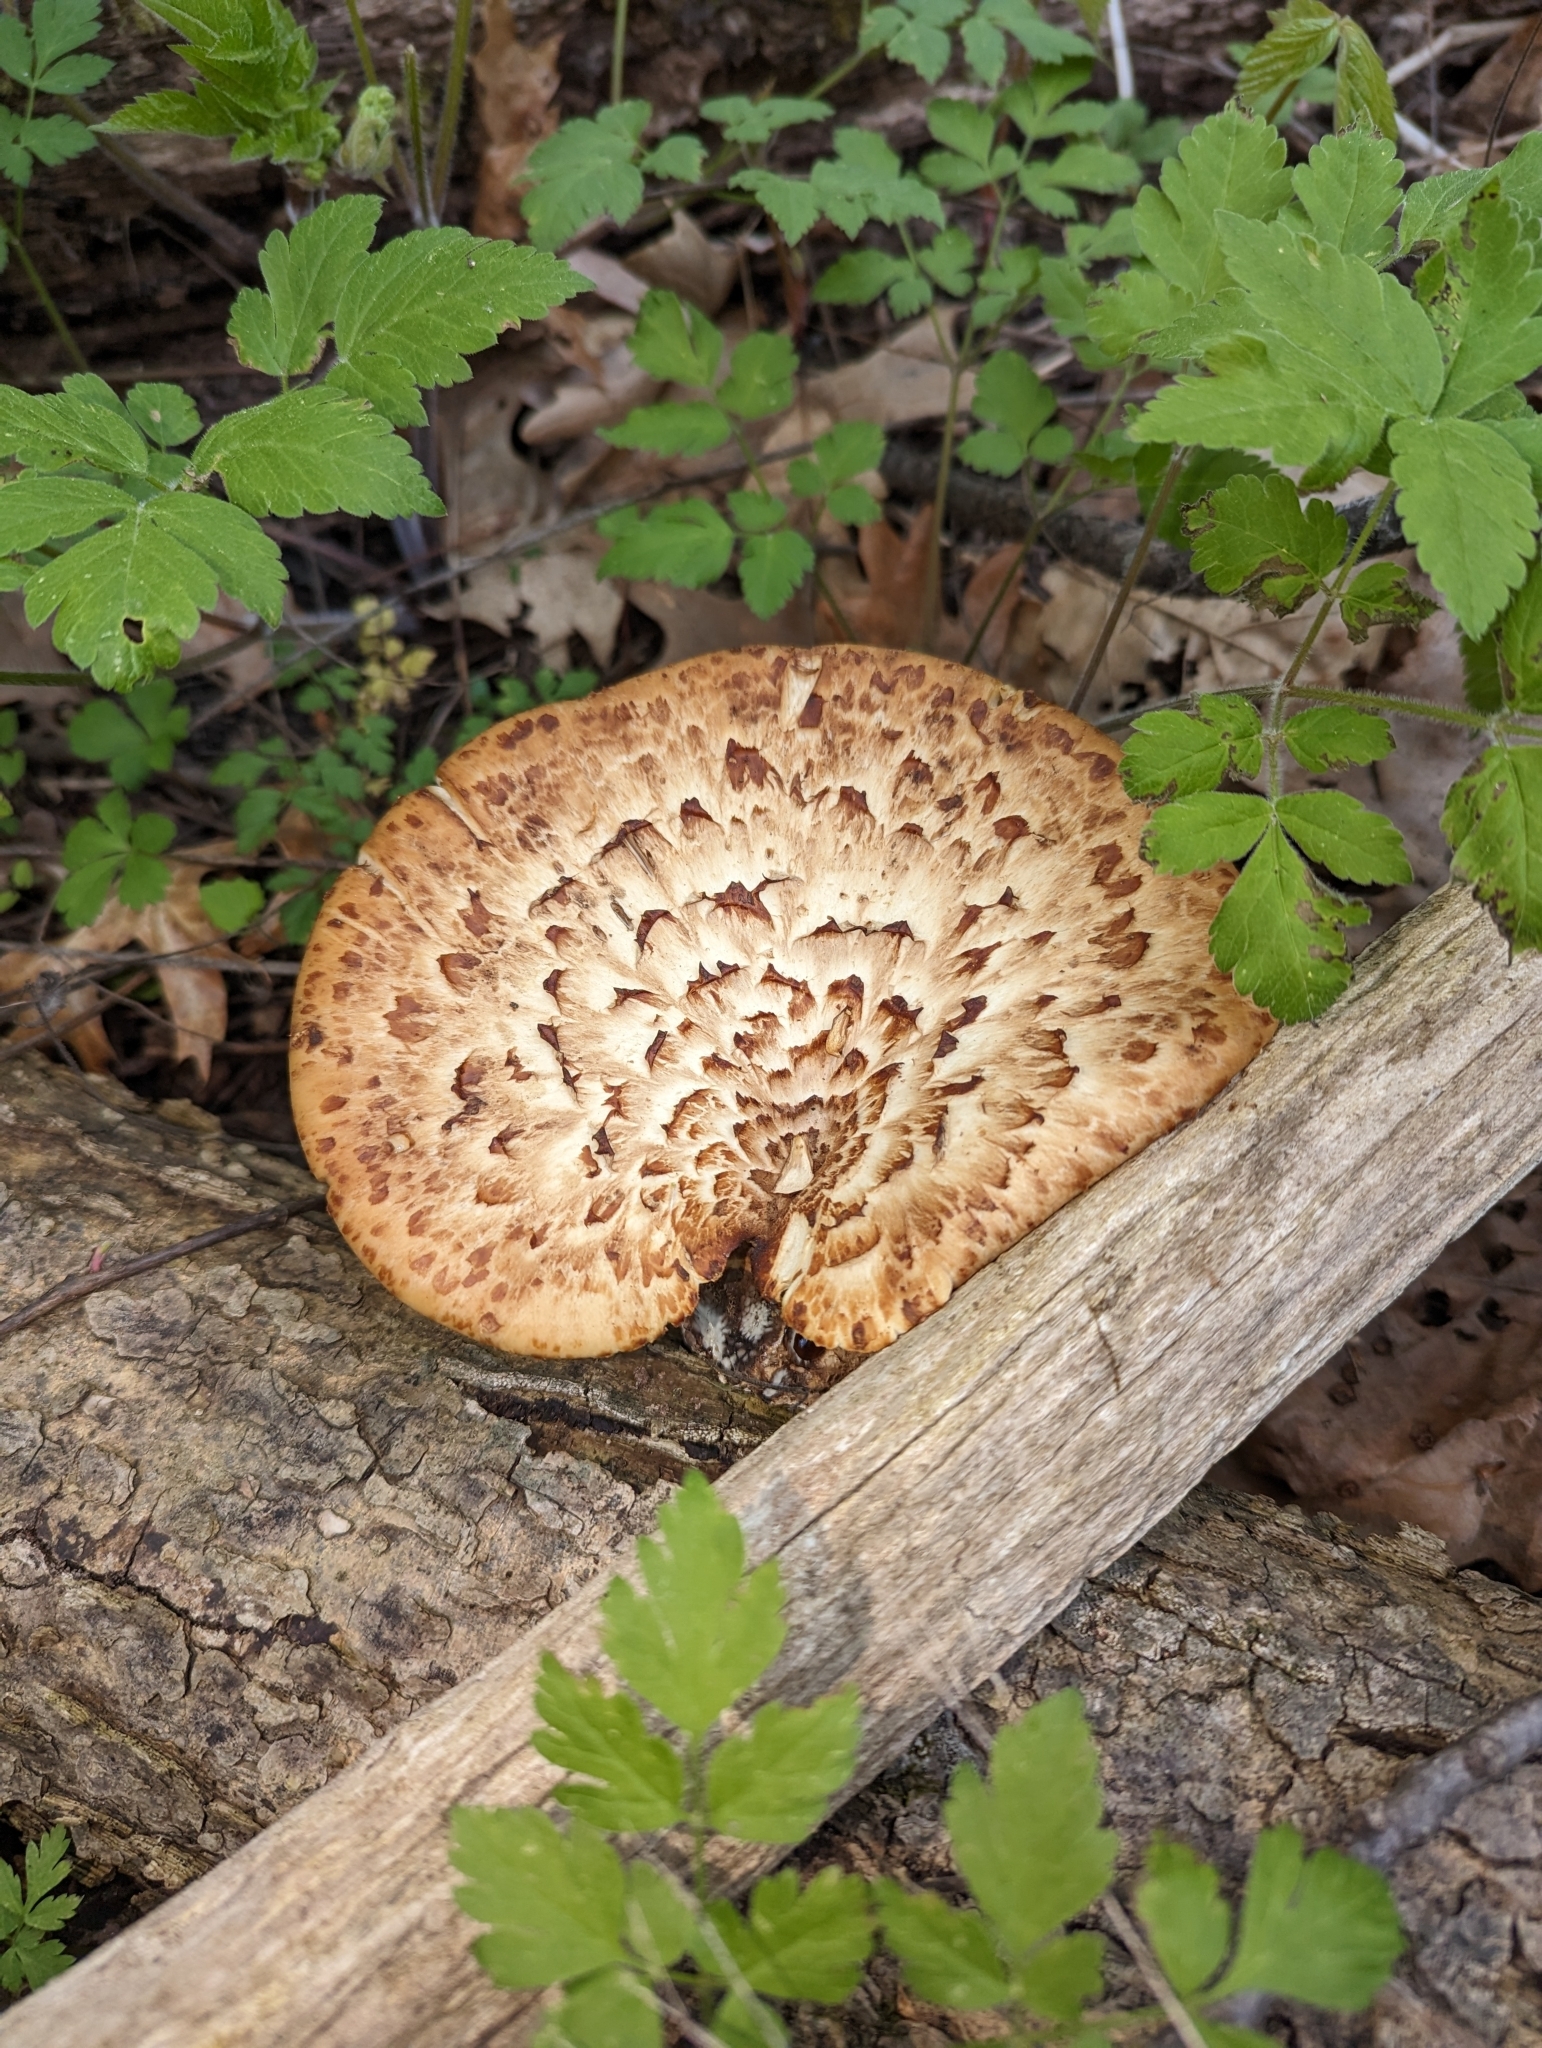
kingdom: Fungi
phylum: Basidiomycota
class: Agaricomycetes
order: Polyporales
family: Polyporaceae
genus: Cerioporus
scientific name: Cerioporus squamosus
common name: Dryad's saddle
